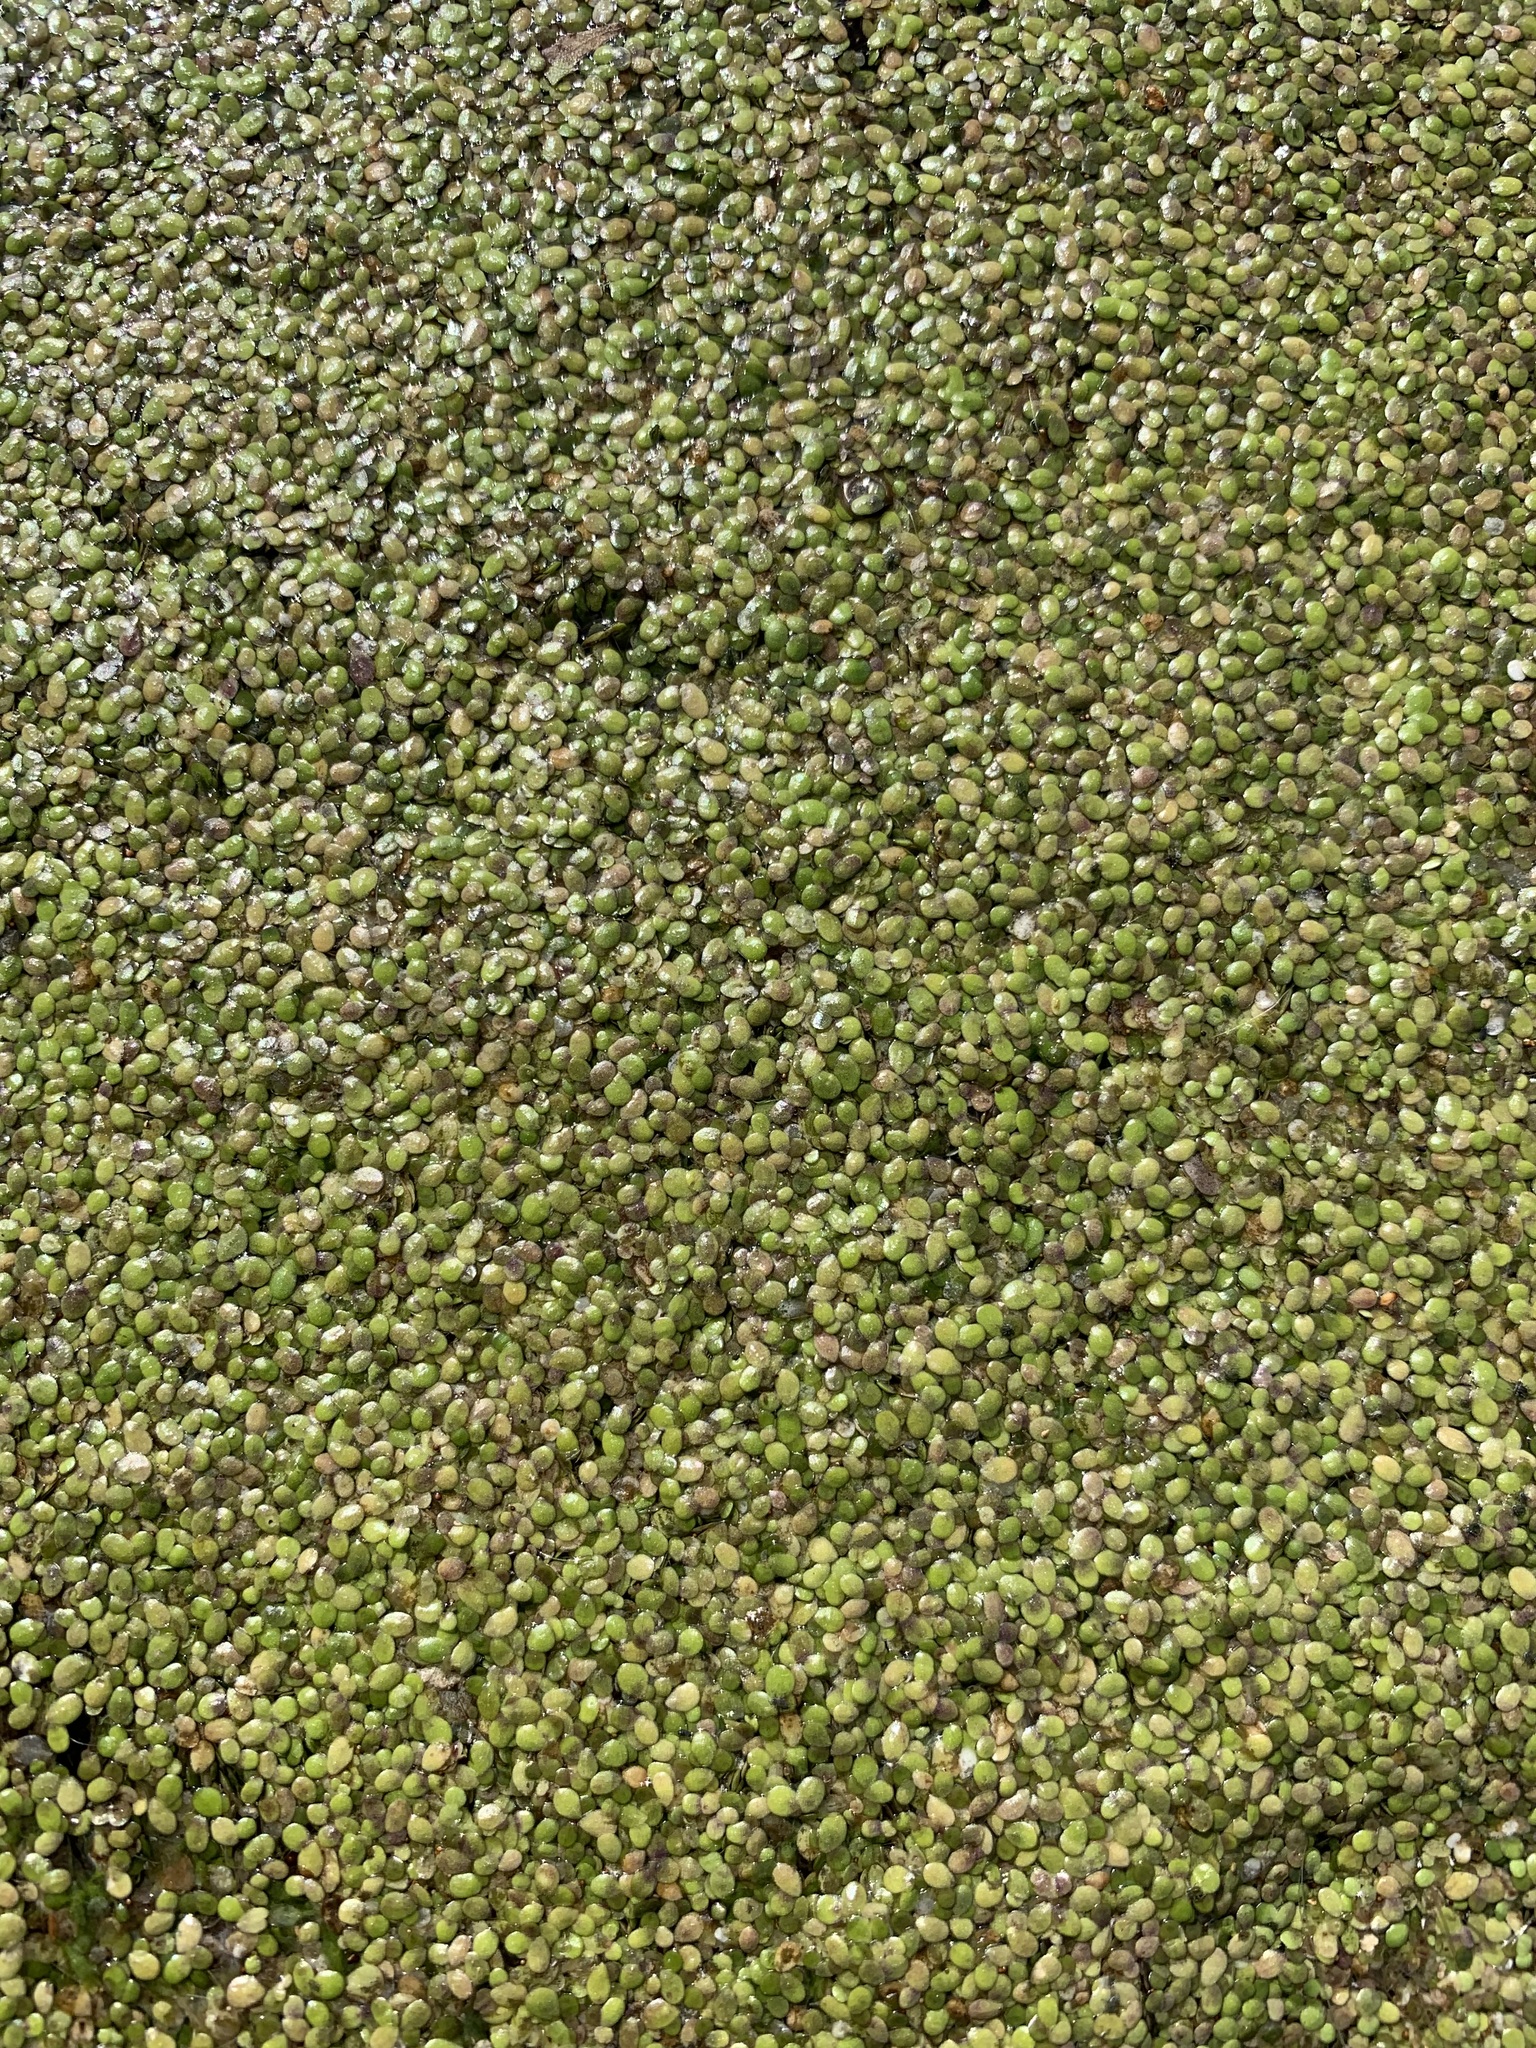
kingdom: Plantae
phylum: Tracheophyta
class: Liliopsida
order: Alismatales
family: Araceae
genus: Lemna
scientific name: Lemna turionifera
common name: Perennial duckweed
